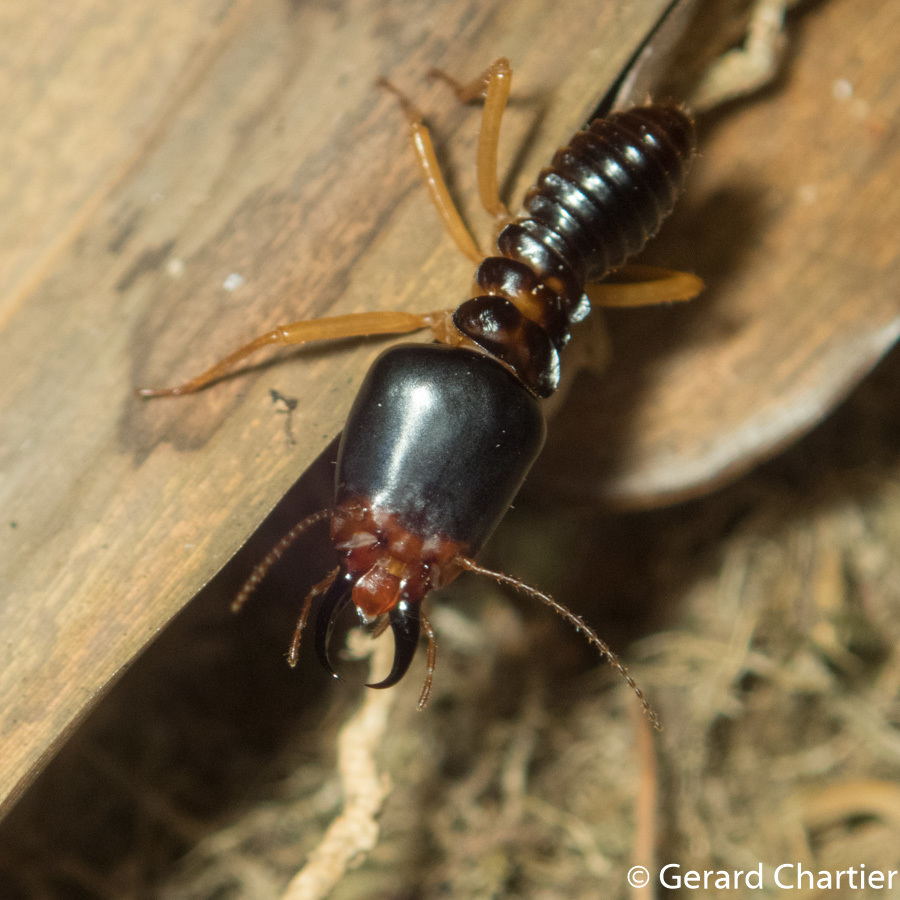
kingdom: Animalia
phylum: Arthropoda
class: Insecta
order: Blattodea
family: Termitidae
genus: Macrotermes
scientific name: Macrotermes carbonarius
